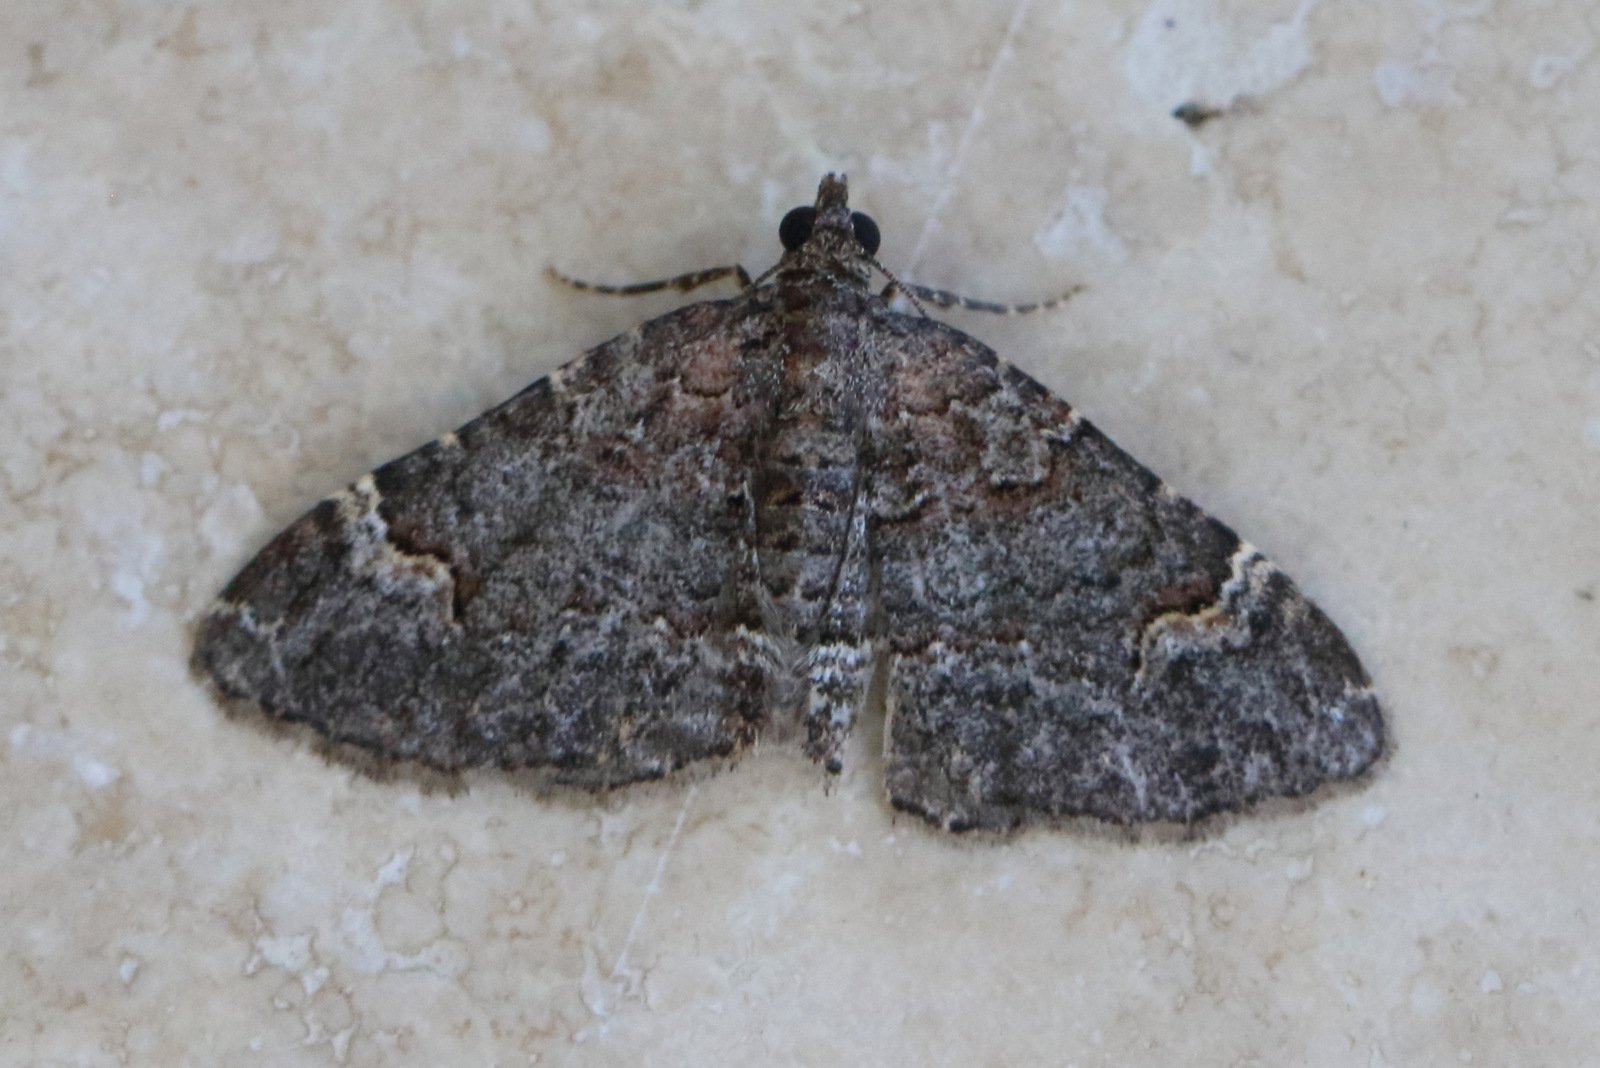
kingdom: Animalia
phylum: Arthropoda
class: Insecta
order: Lepidoptera
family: Geometridae
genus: Epyaxa
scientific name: Epyaxa sodaliata
